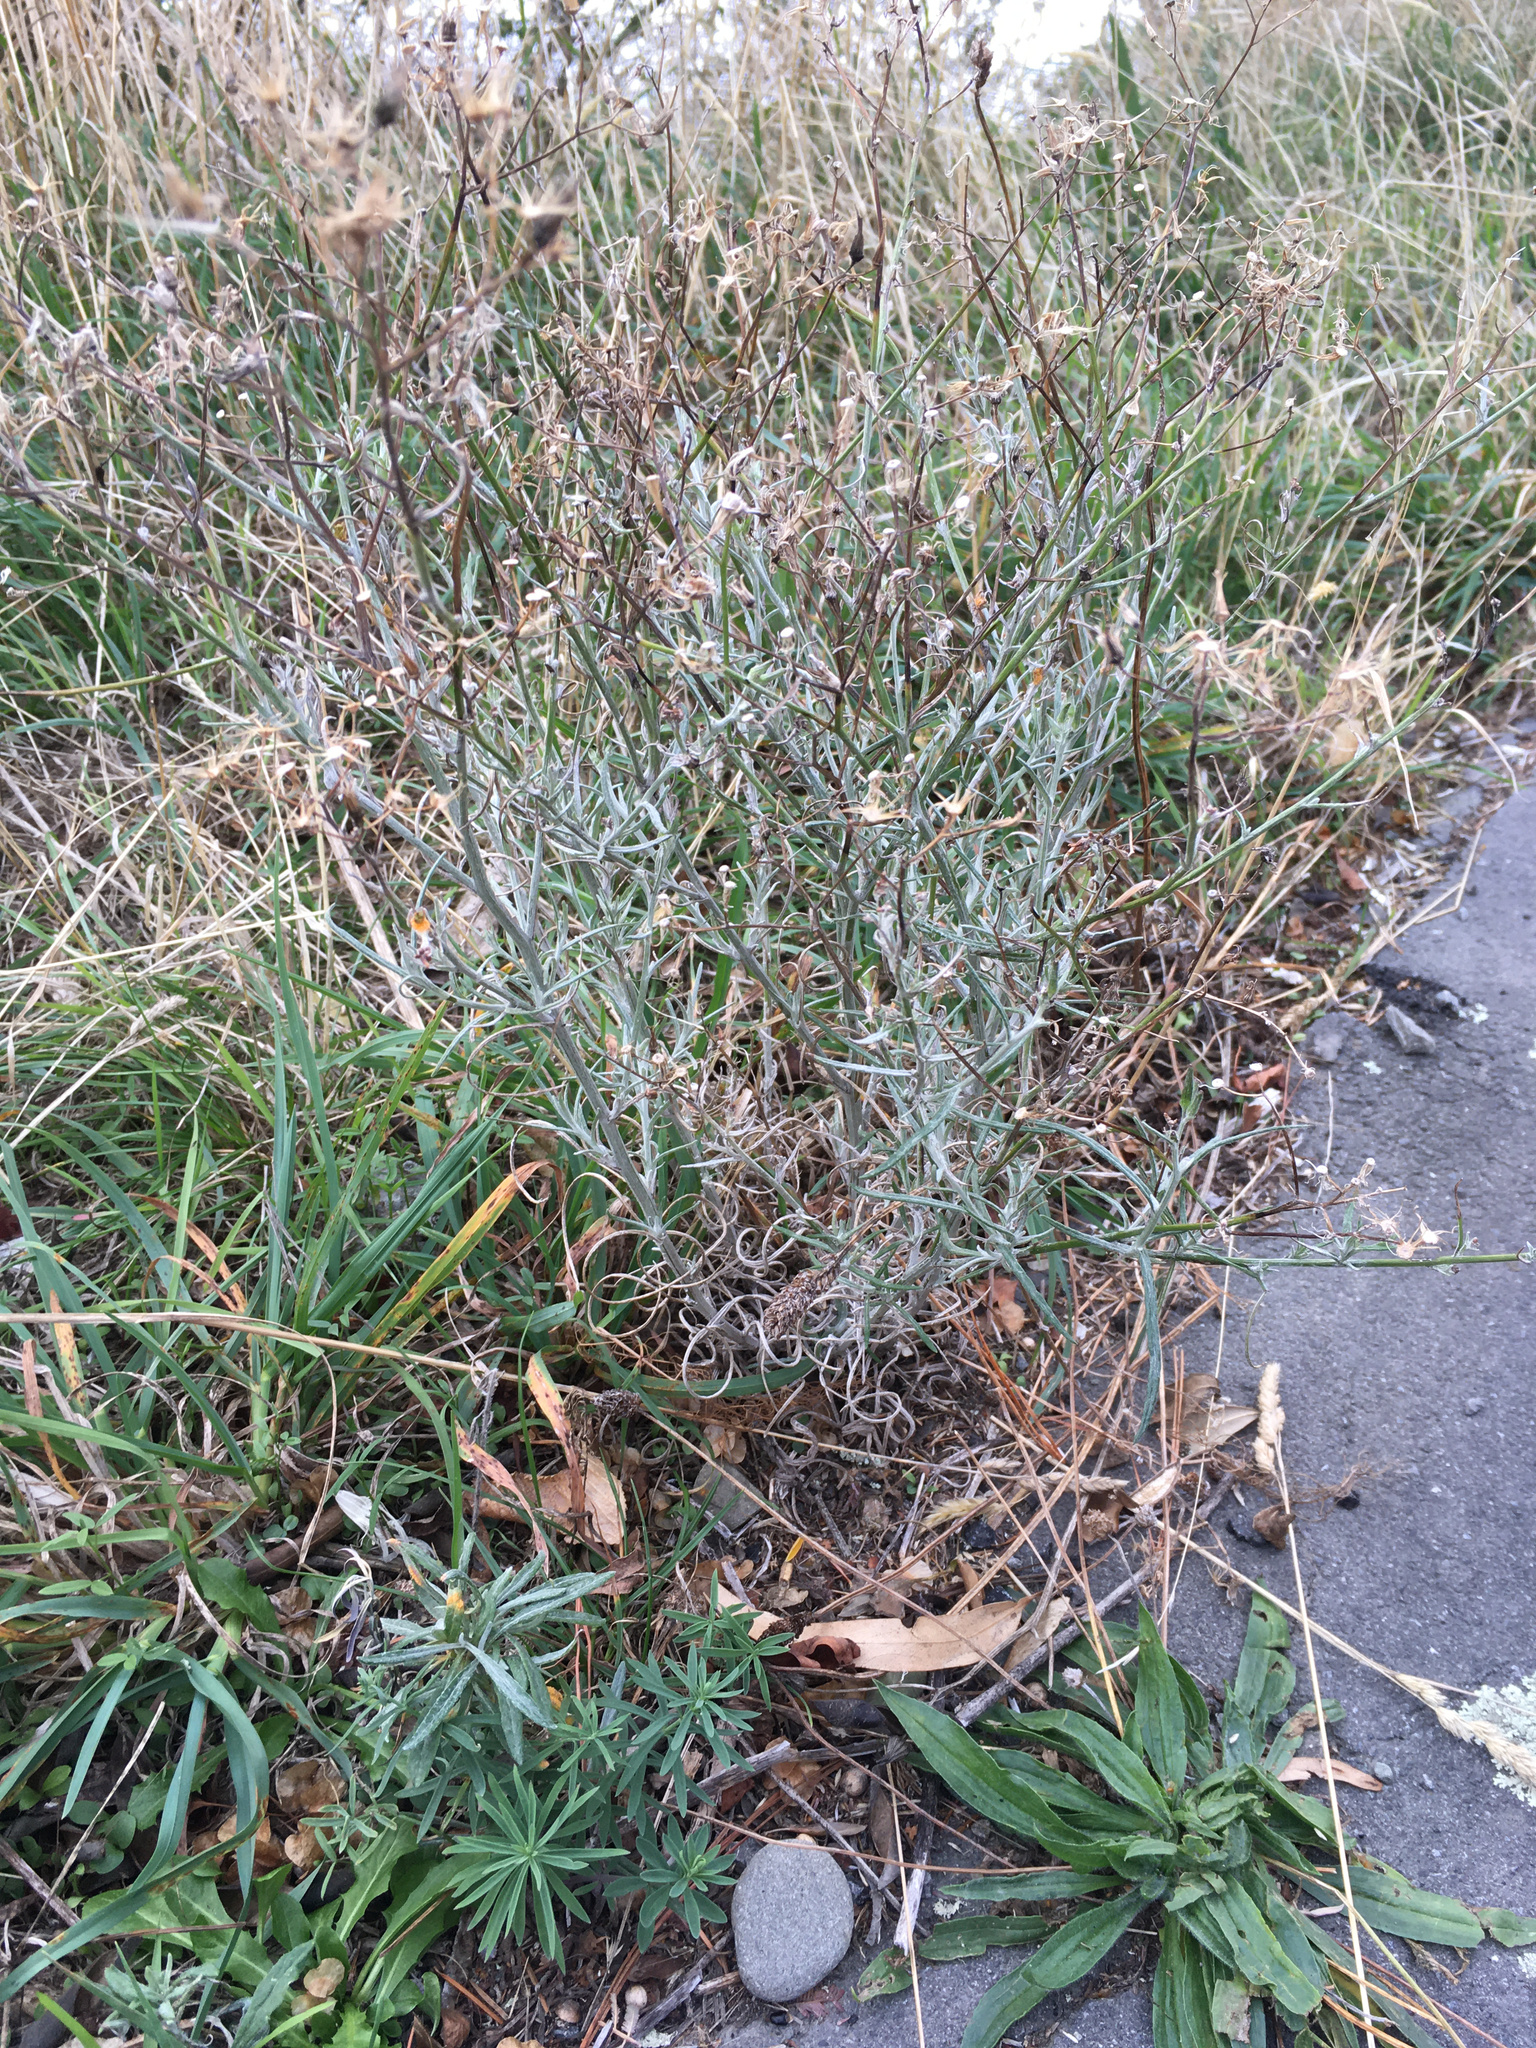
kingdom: Plantae
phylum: Tracheophyta
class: Magnoliopsida
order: Asterales
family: Asteraceae
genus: Senecio
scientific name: Senecio quadridentatus
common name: Cotton fireweed
